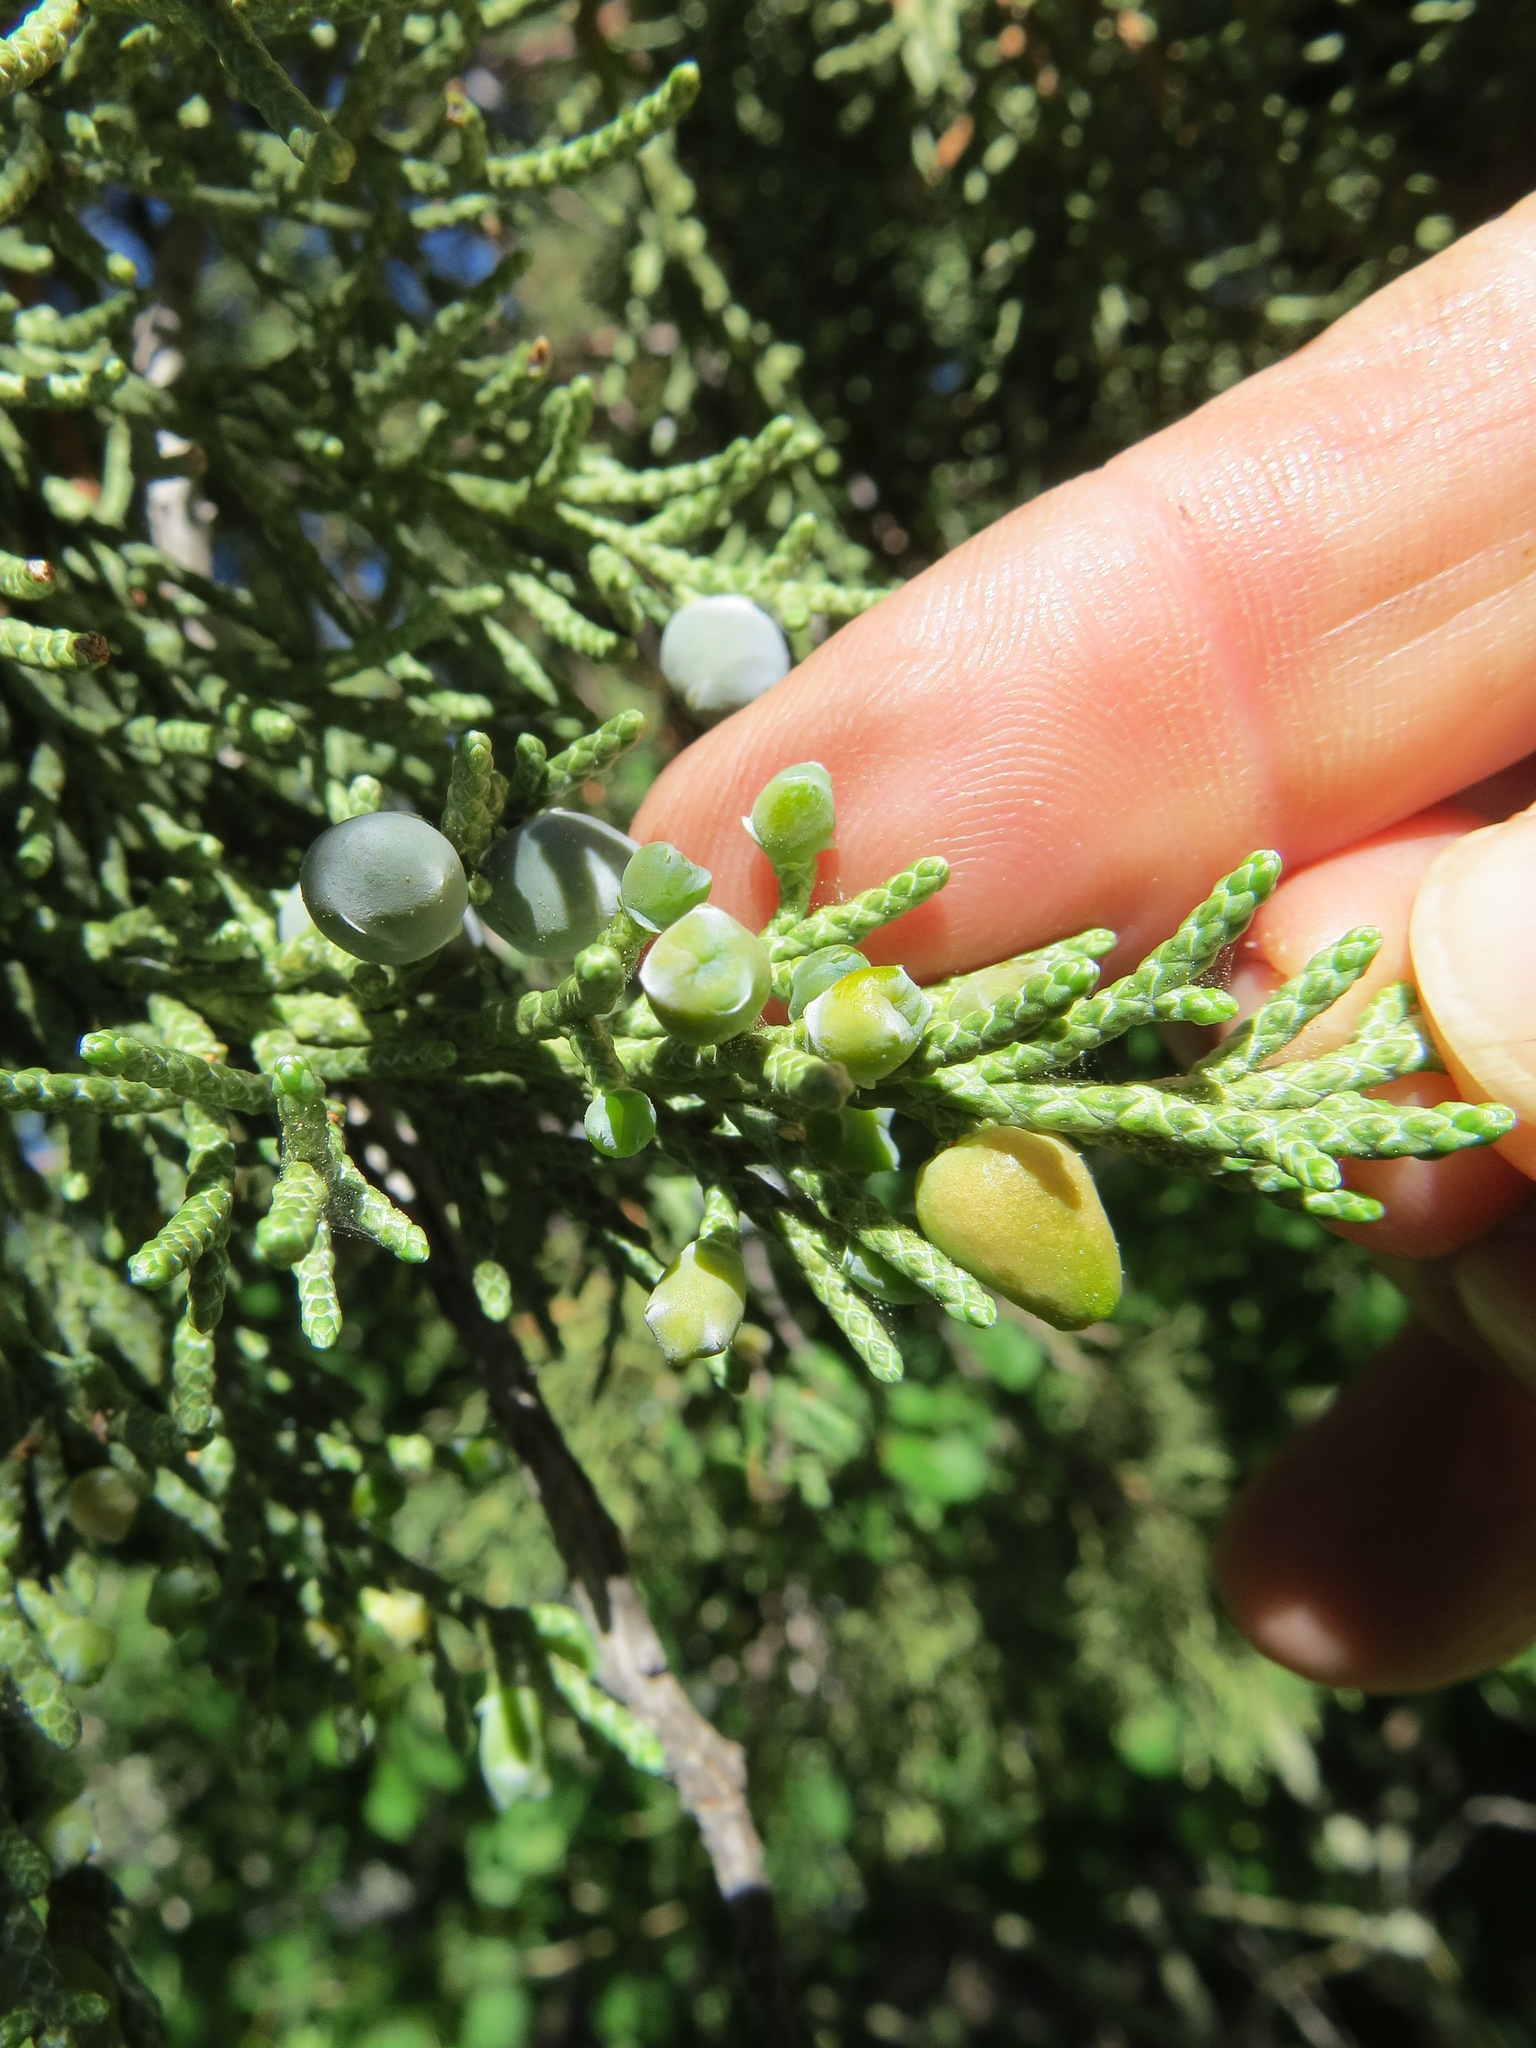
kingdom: Animalia
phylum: Arthropoda
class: Insecta
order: Diptera
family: Cecidomyiidae
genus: Walshomyia
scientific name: Walshomyia juniperina
